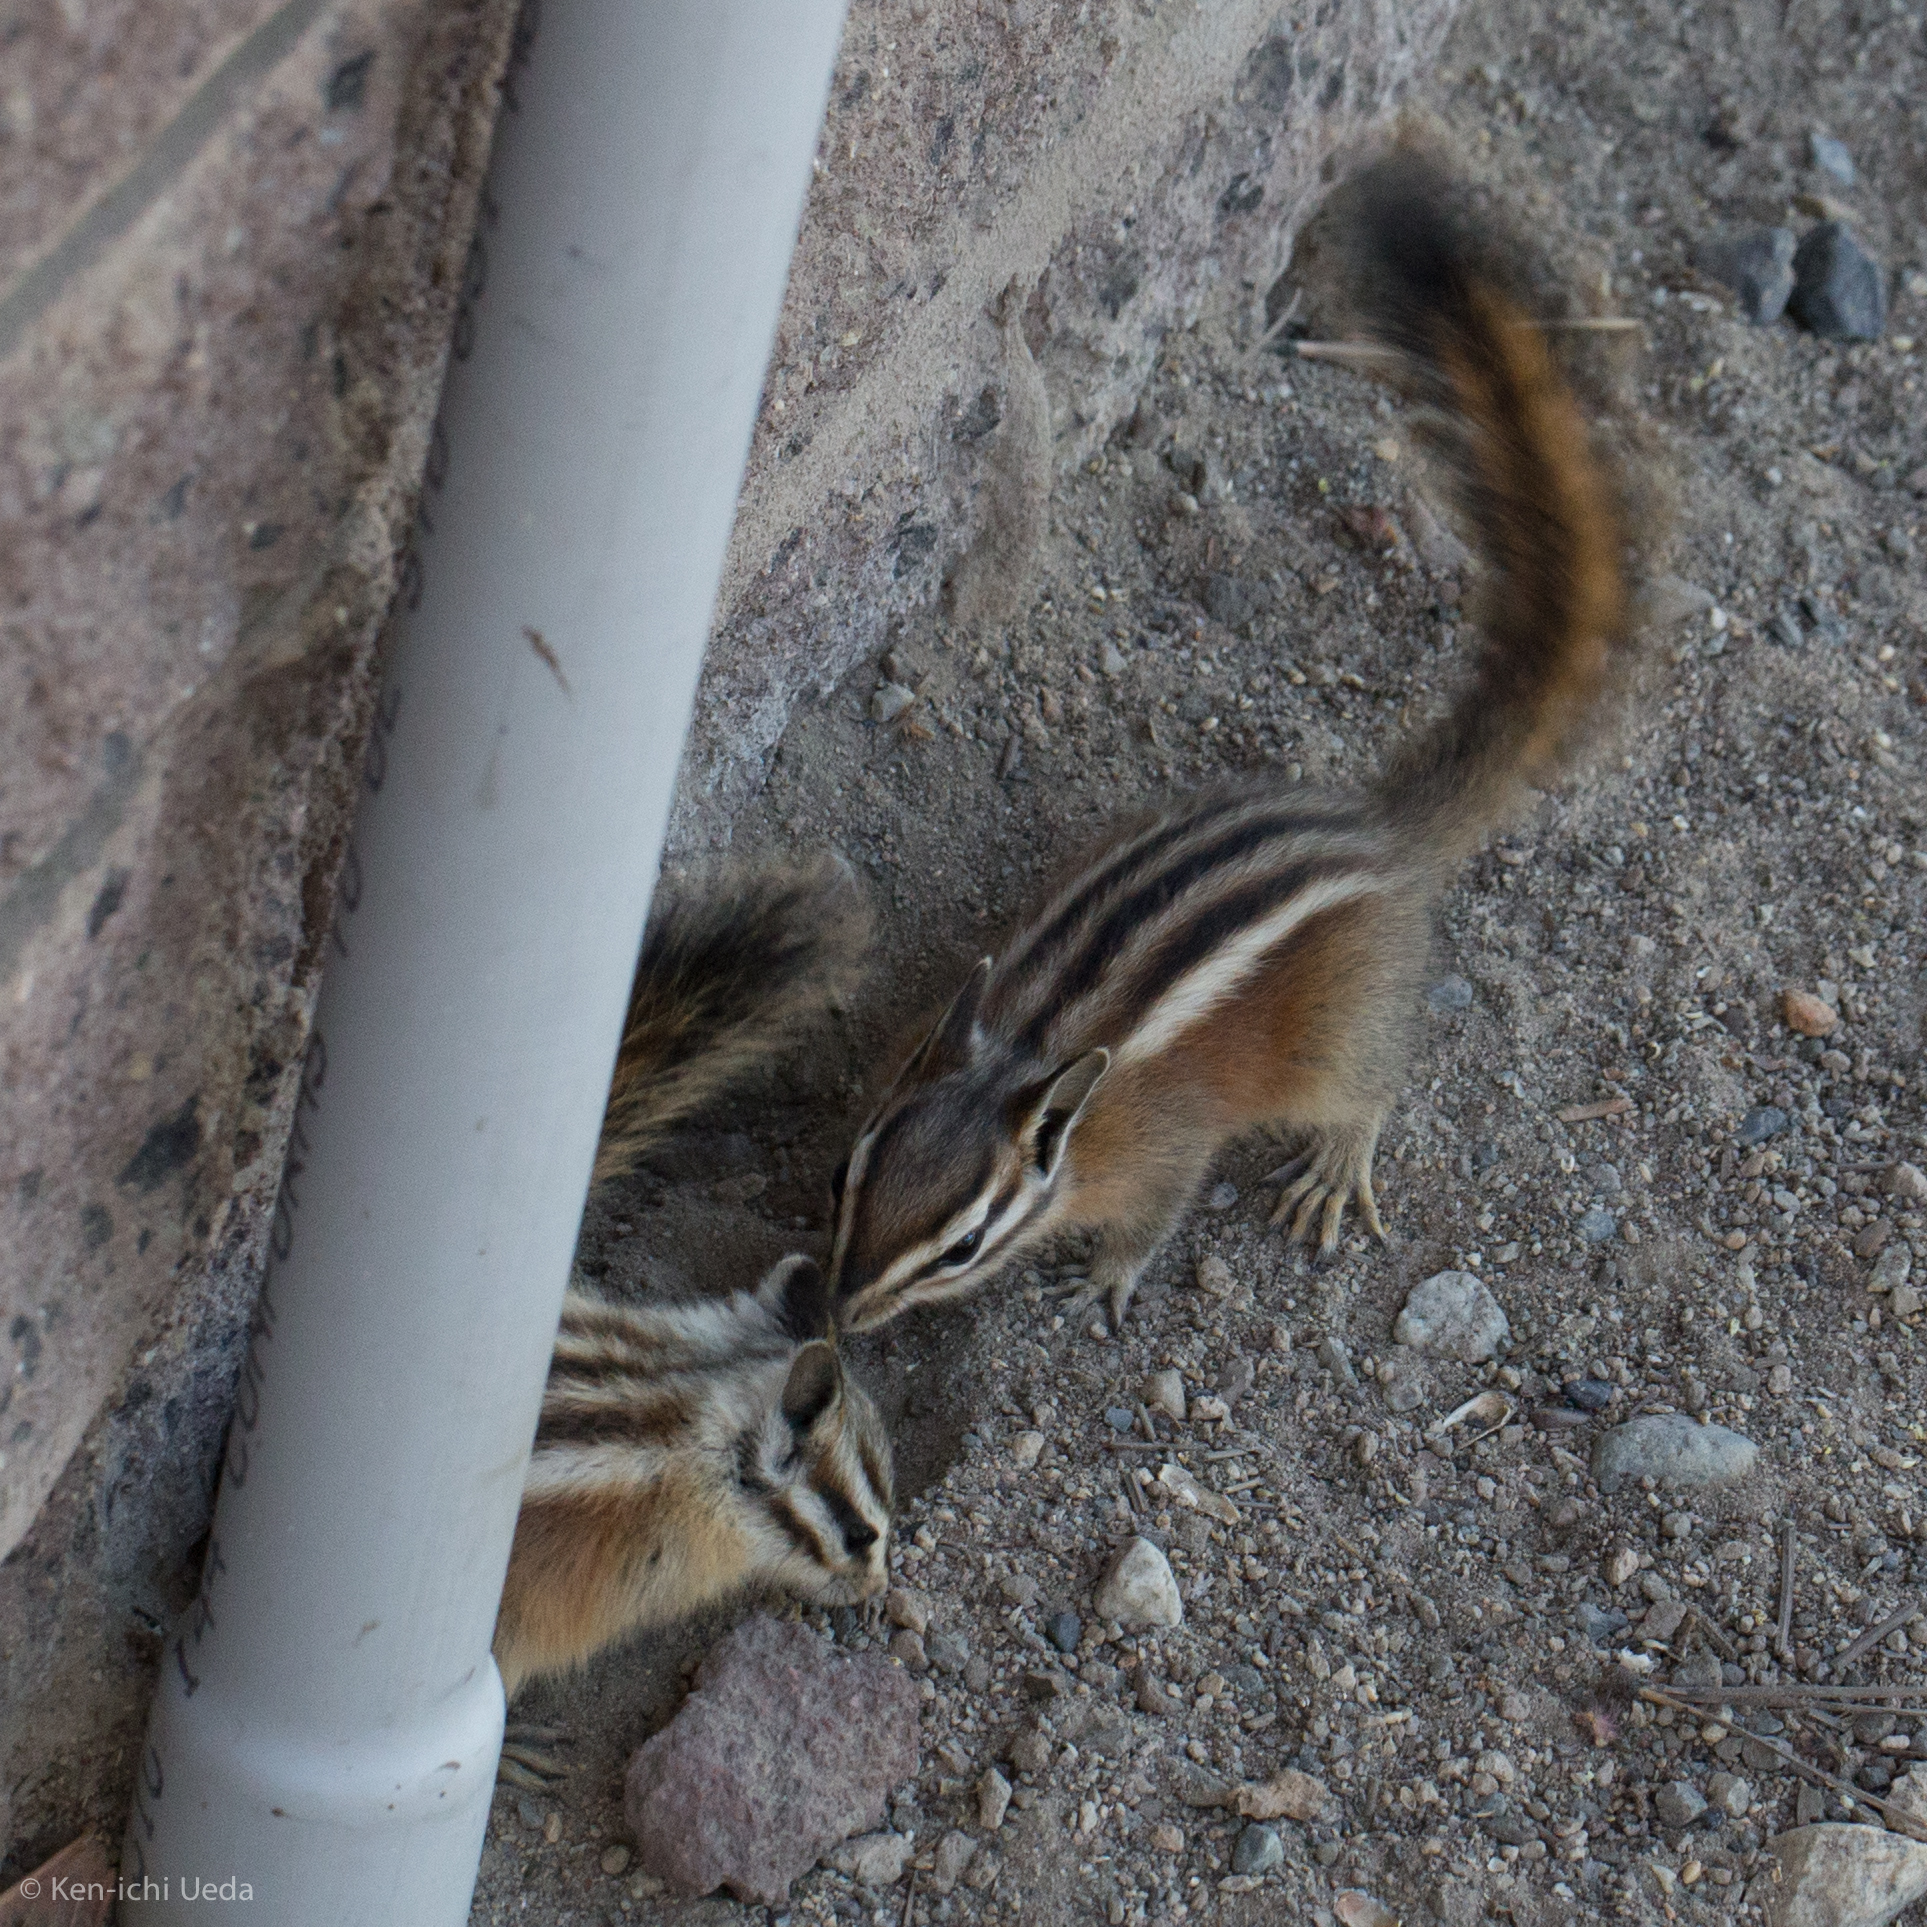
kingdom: Animalia
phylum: Chordata
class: Mammalia
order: Rodentia
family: Sciuridae
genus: Tamias
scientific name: Tamias speciosus
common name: Lodgepole chipmunk
